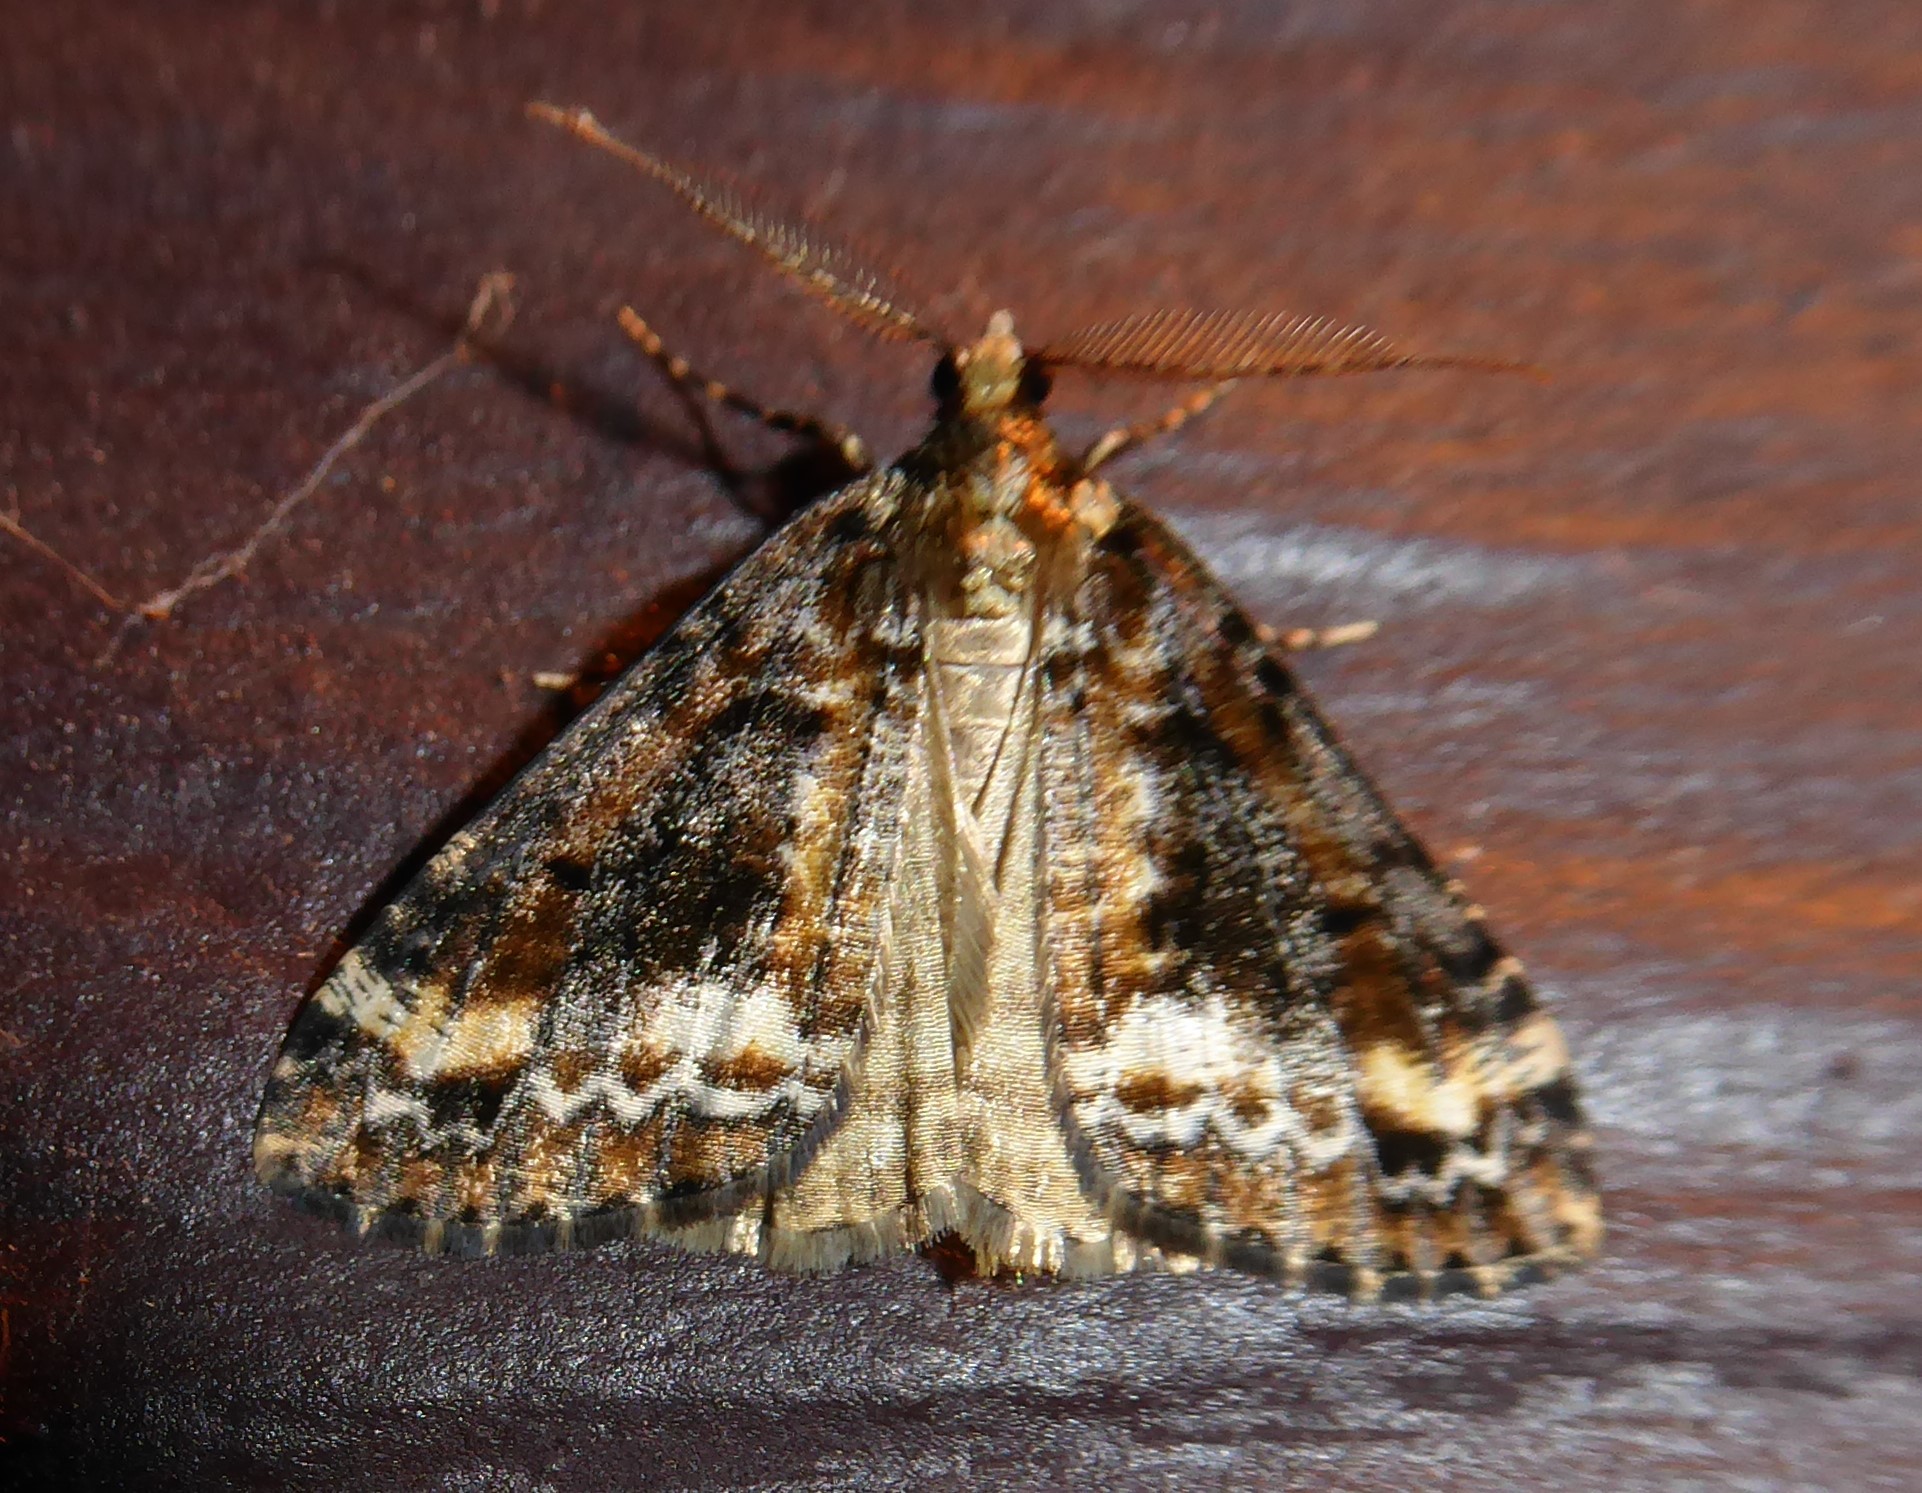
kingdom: Animalia
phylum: Arthropoda
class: Insecta
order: Lepidoptera
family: Geometridae
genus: Pseudocoremia
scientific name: Pseudocoremia leucelaea
